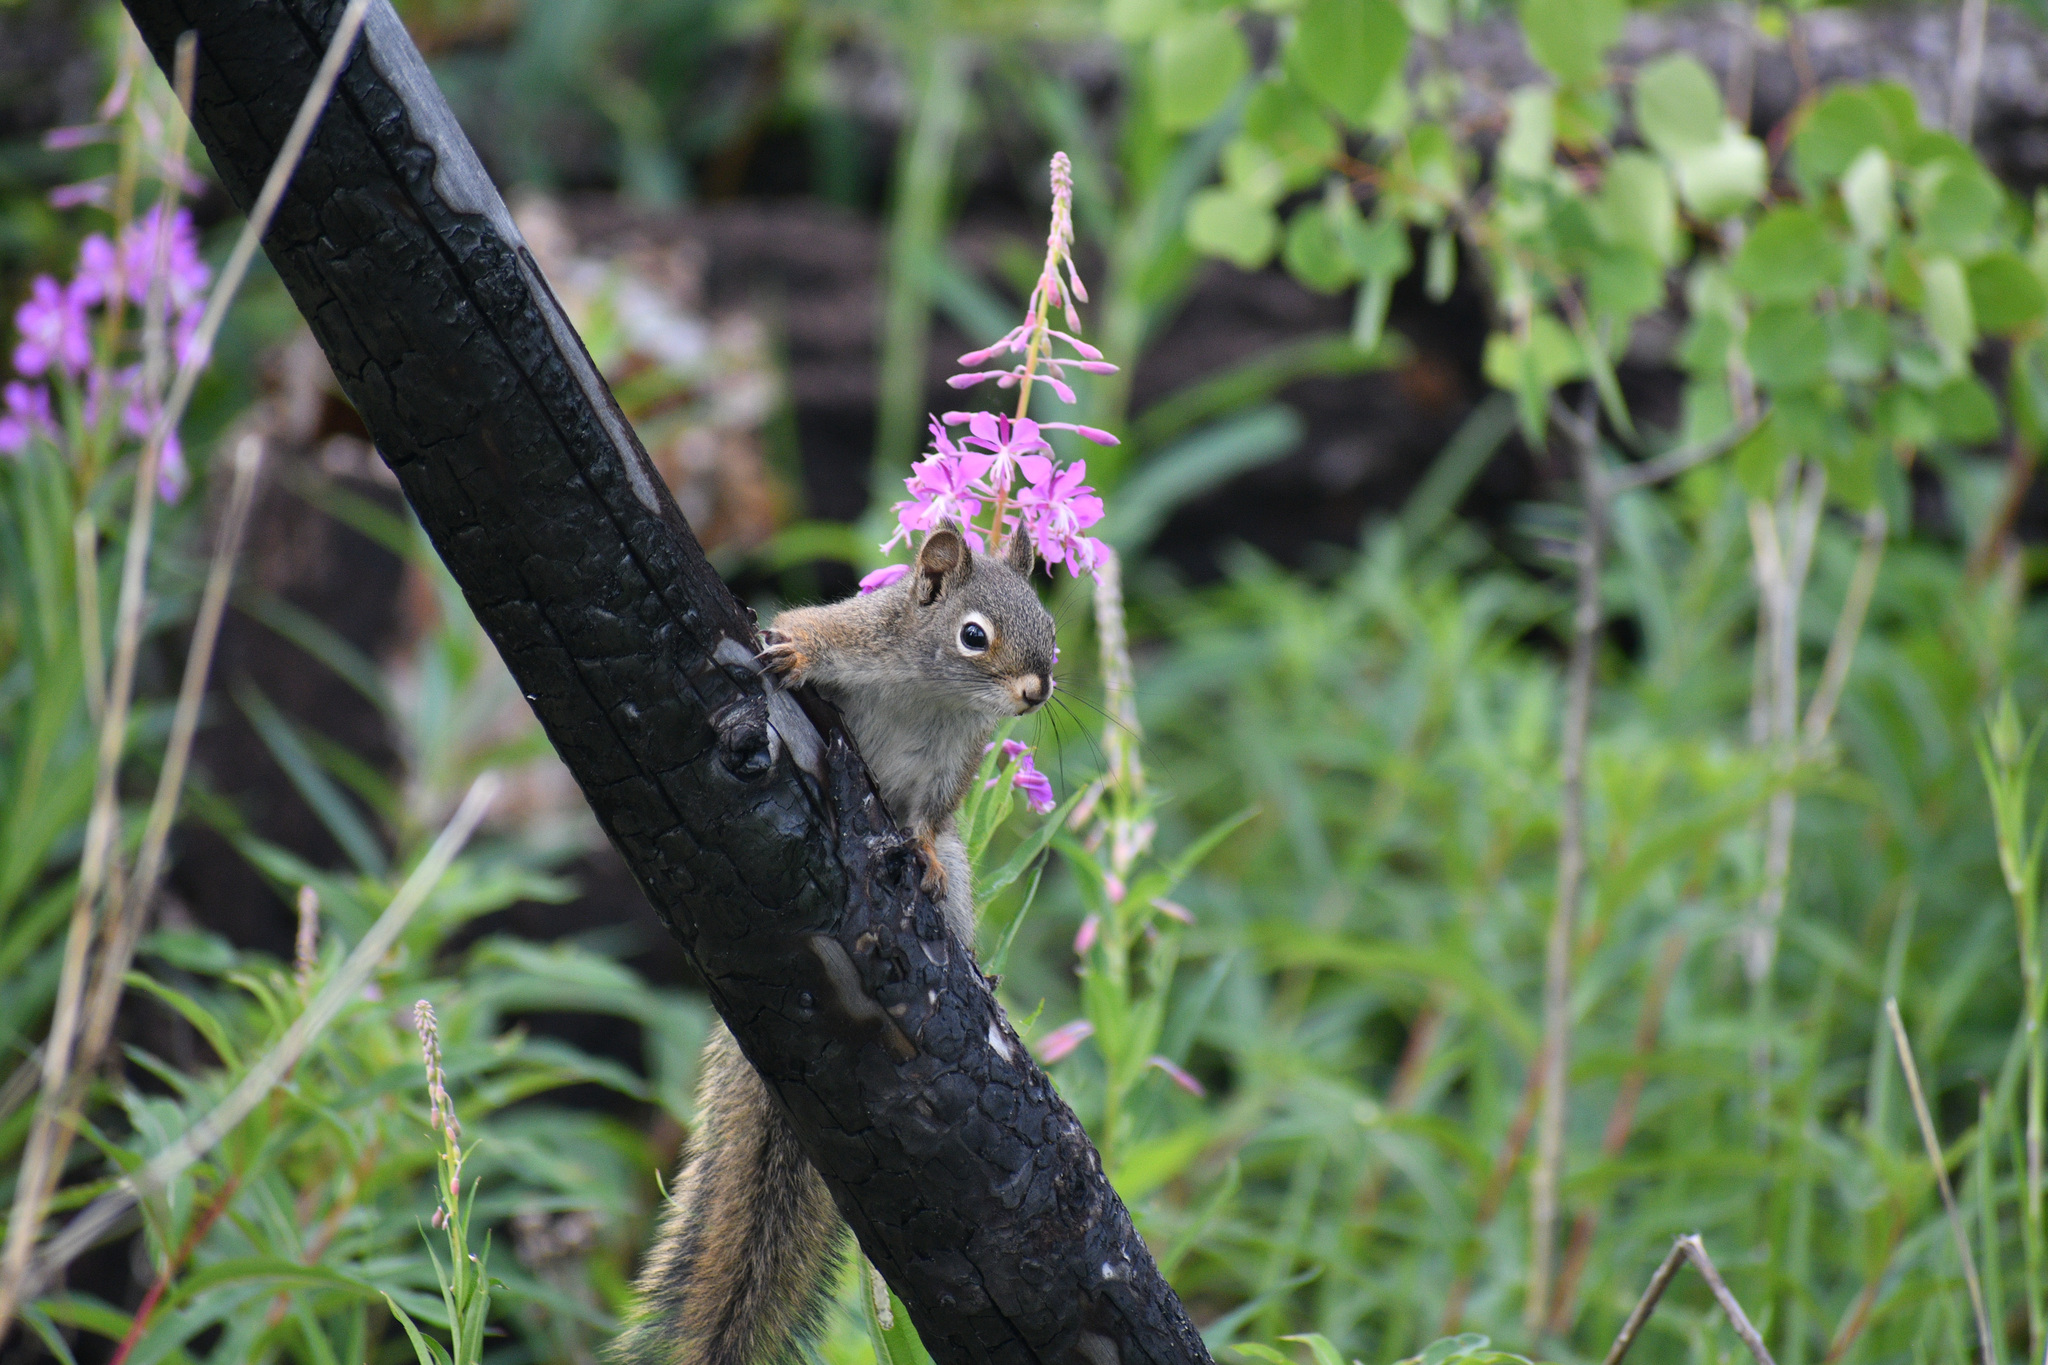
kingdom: Animalia
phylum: Chordata
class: Mammalia
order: Rodentia
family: Sciuridae
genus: Tamiasciurus
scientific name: Tamiasciurus hudsonicus
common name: Red squirrel
